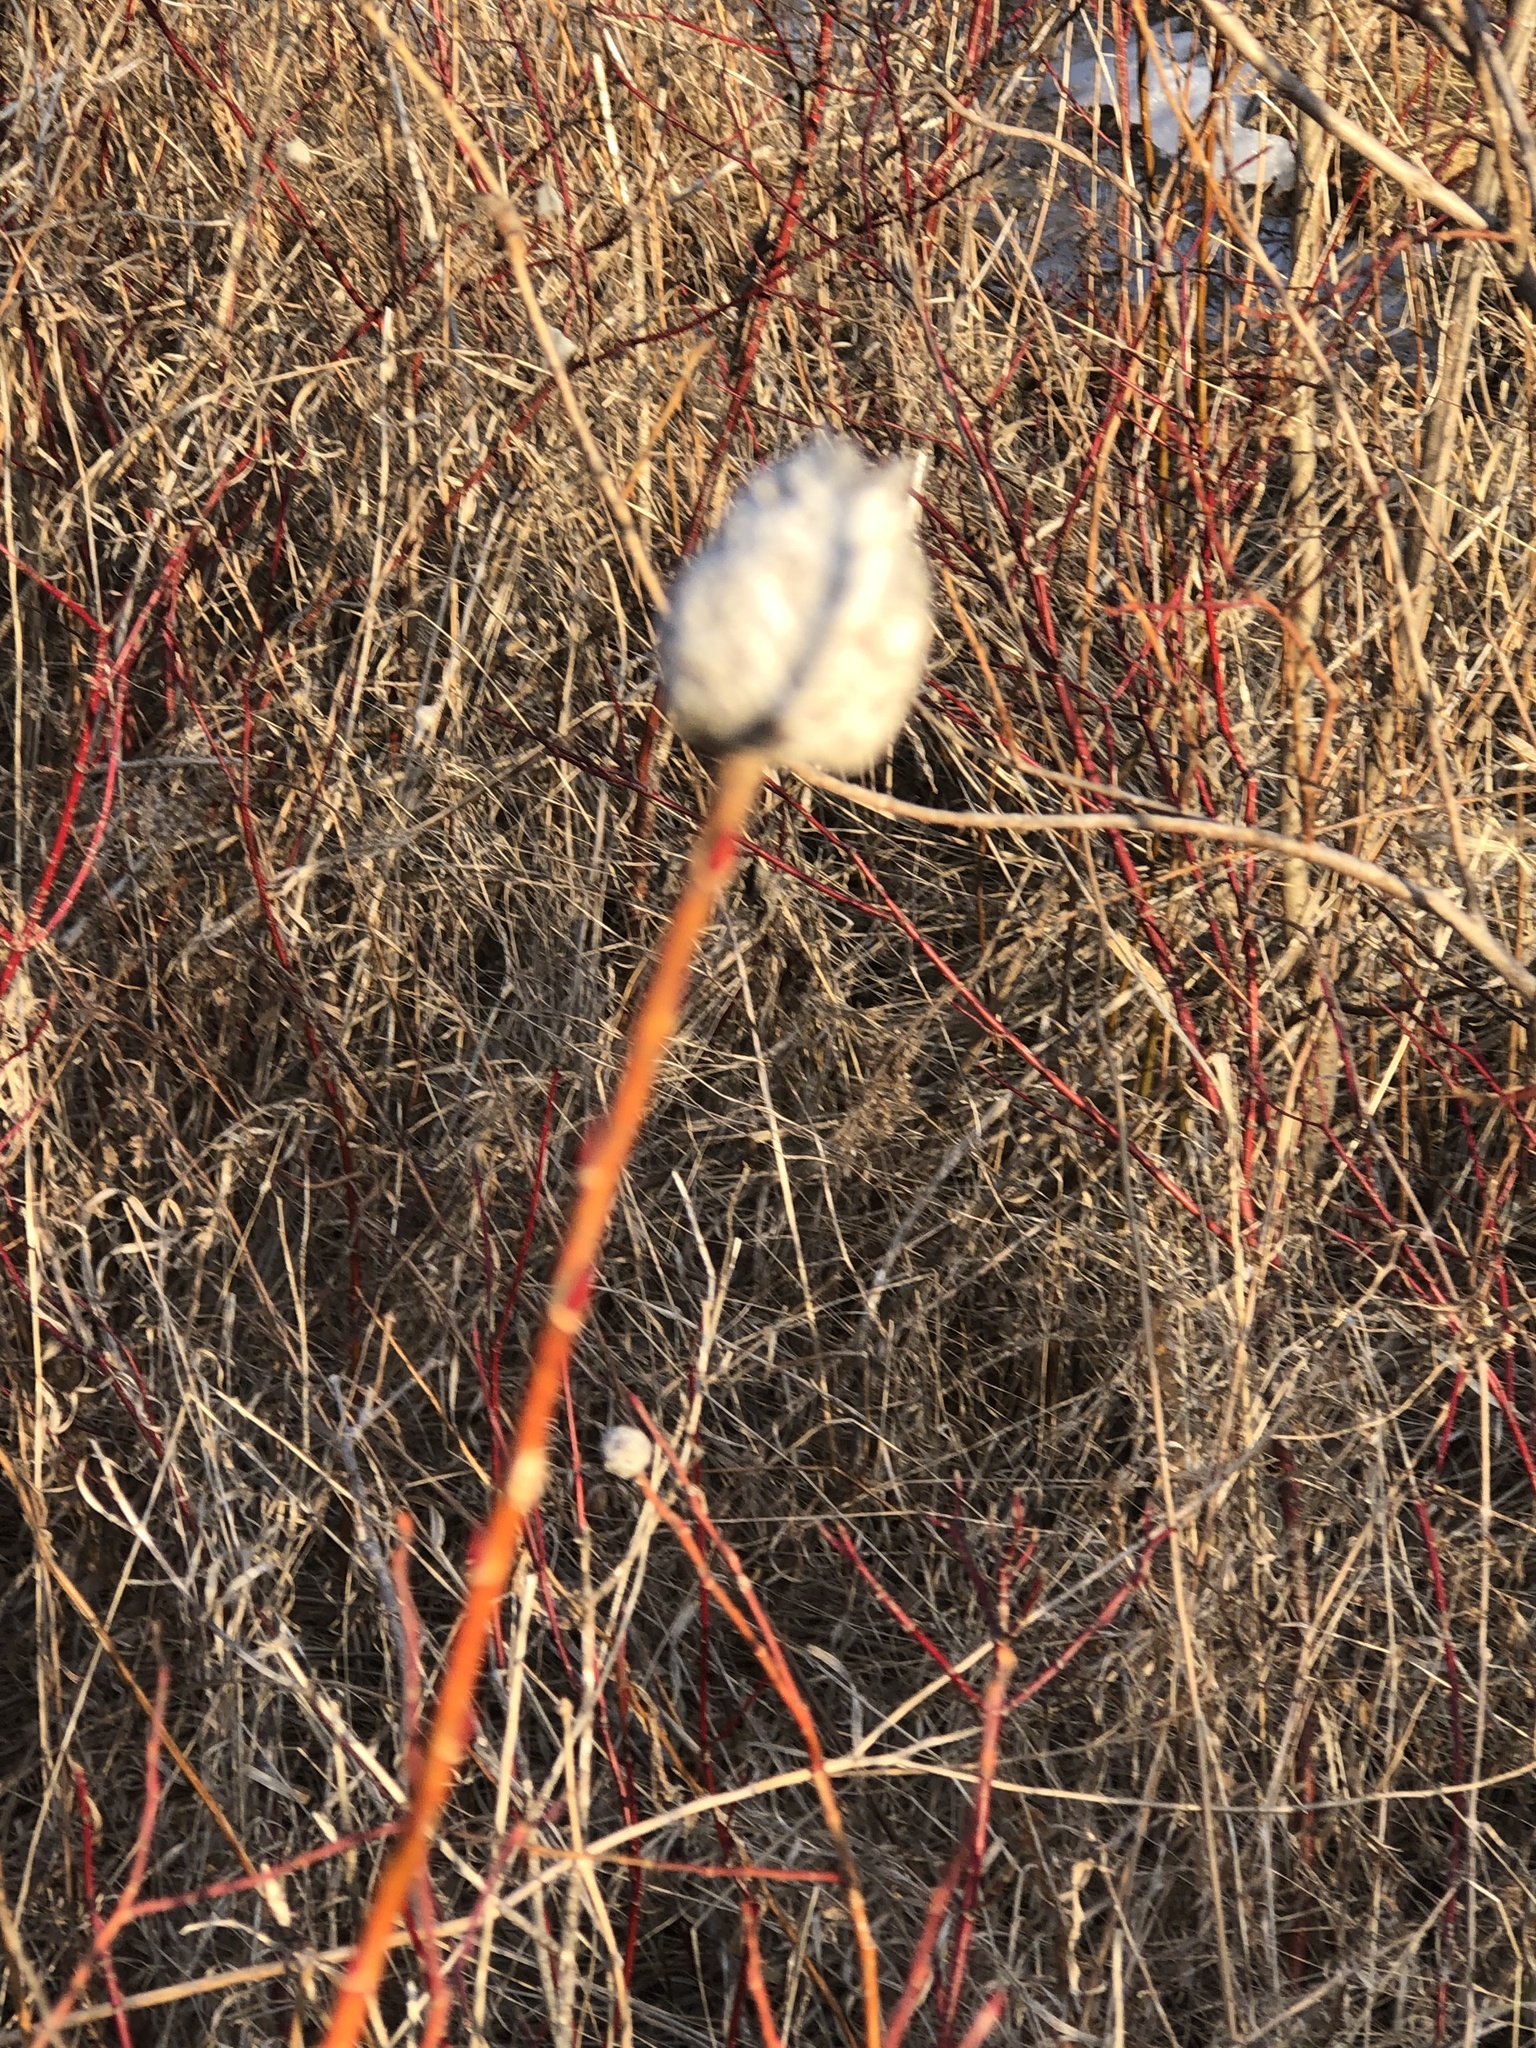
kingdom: Animalia
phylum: Arthropoda
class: Insecta
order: Diptera
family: Cecidomyiidae
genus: Rabdophaga
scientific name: Rabdophaga strobiloides
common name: Willow pinecone gall midge
